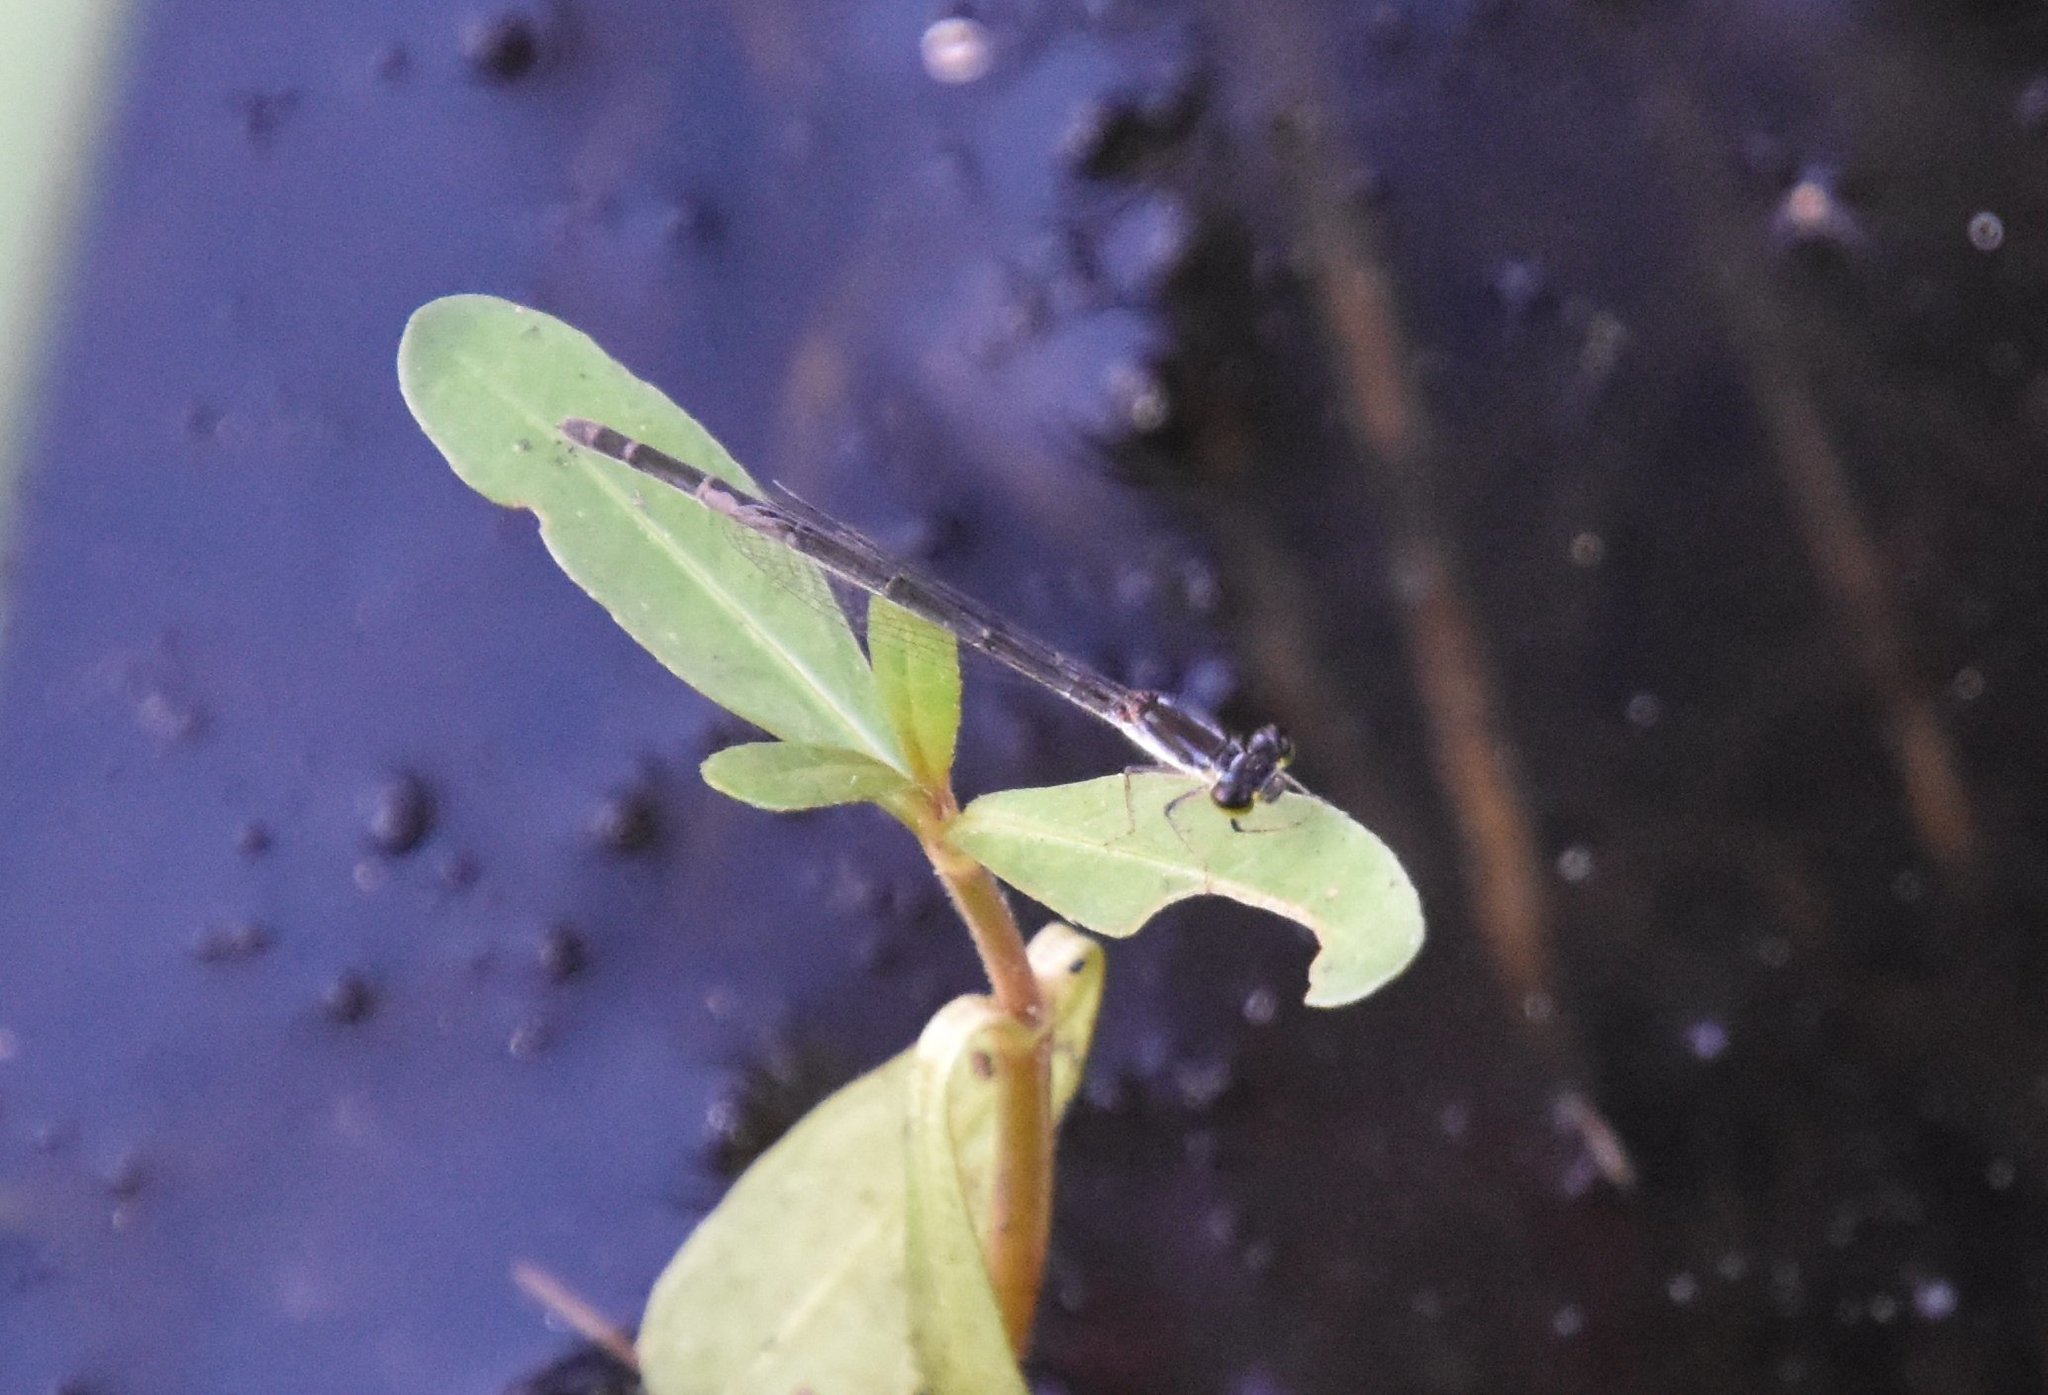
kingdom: Animalia
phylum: Arthropoda
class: Insecta
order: Odonata
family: Coenagrionidae
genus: Ischnura
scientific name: Ischnura posita
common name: Fragile forktail
